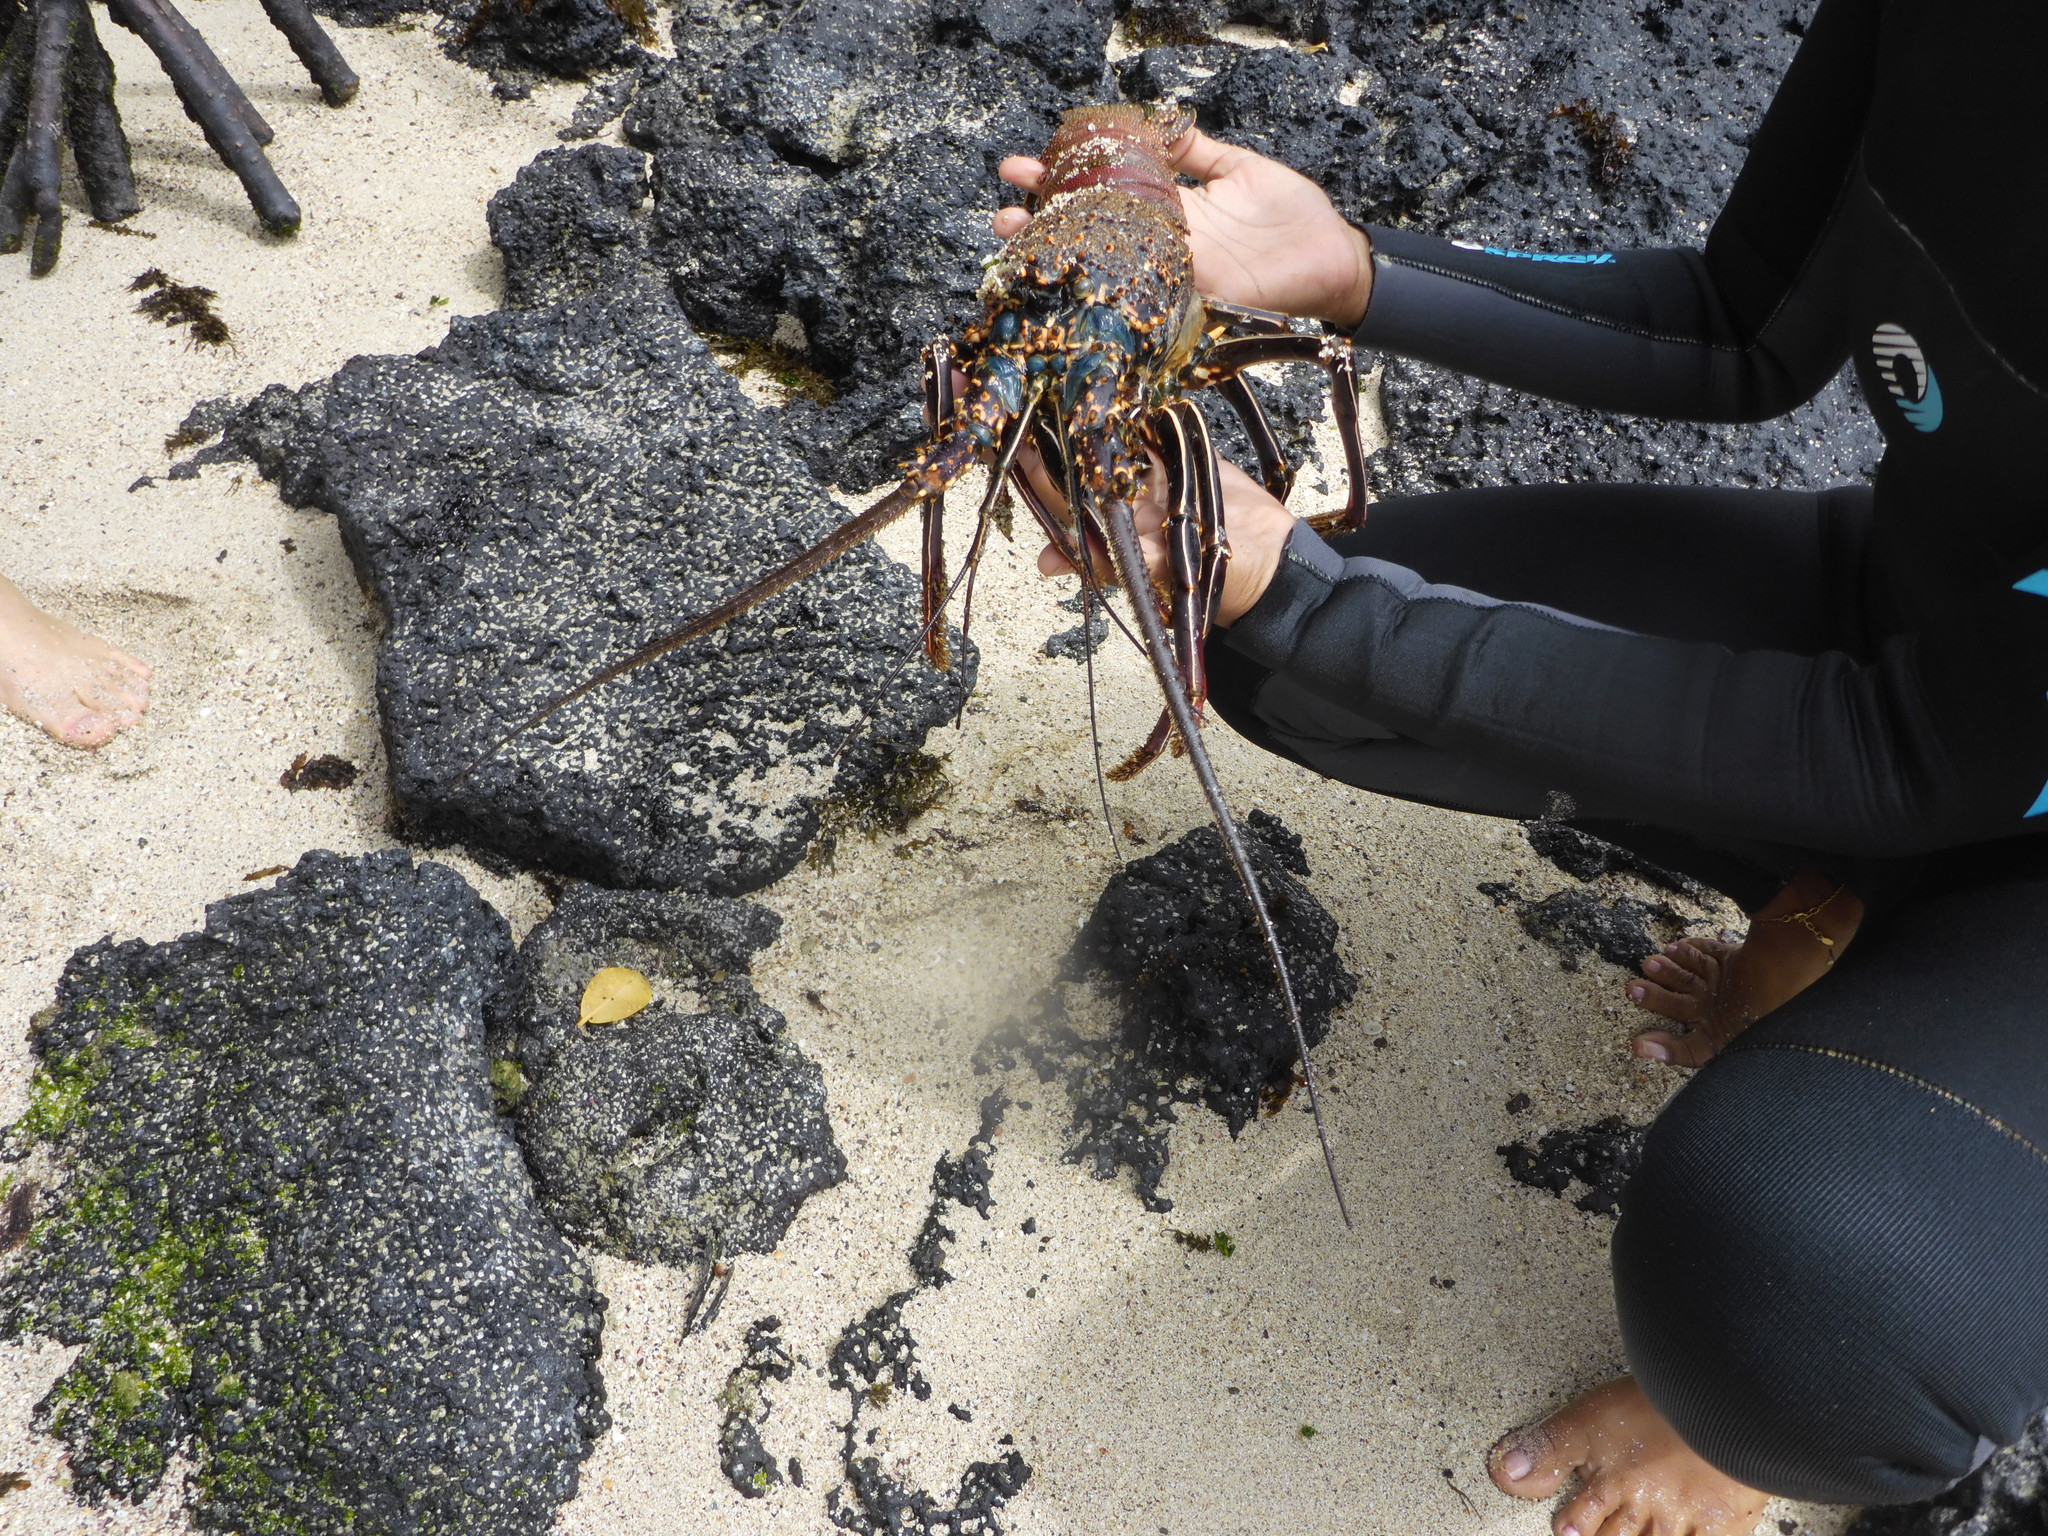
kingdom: Animalia
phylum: Arthropoda
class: Malacostraca
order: Decapoda
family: Palinuridae
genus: Panulirus
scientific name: Panulirus penicillatus
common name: Pronghorn spiny lobster
